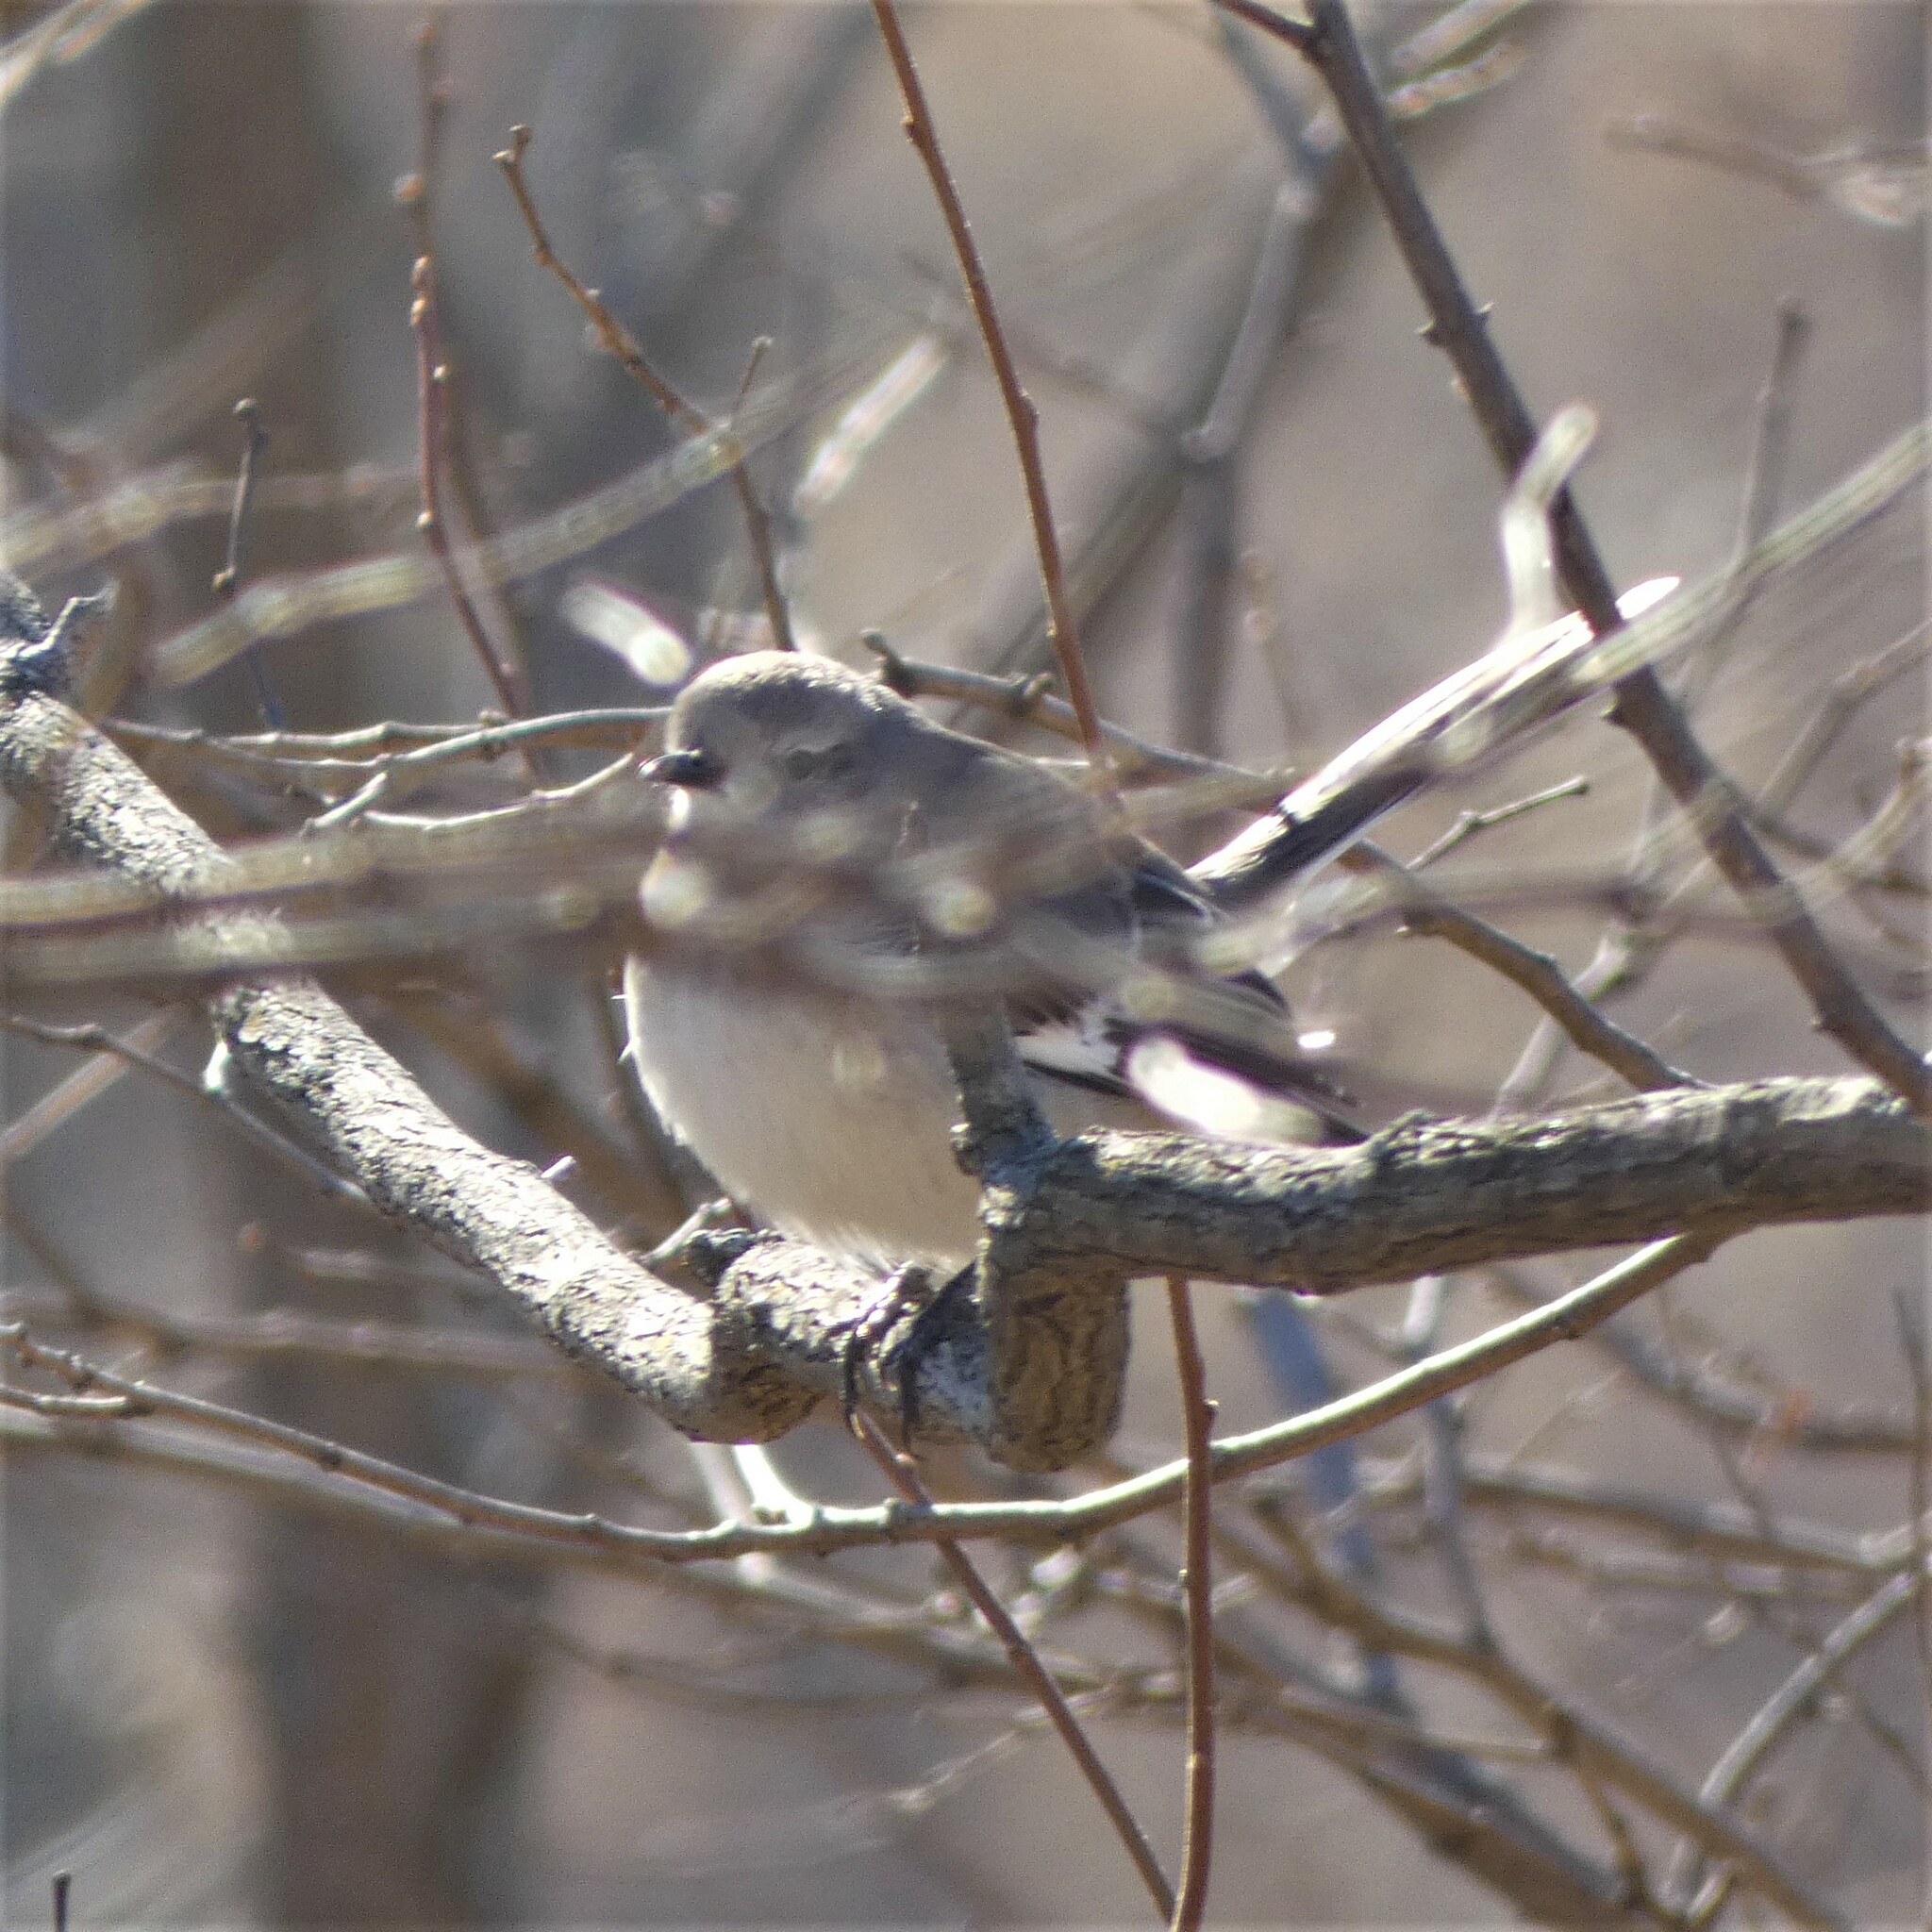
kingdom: Animalia
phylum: Chordata
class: Aves
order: Passeriformes
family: Mimidae
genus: Mimus
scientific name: Mimus polyglottos
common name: Northern mockingbird
